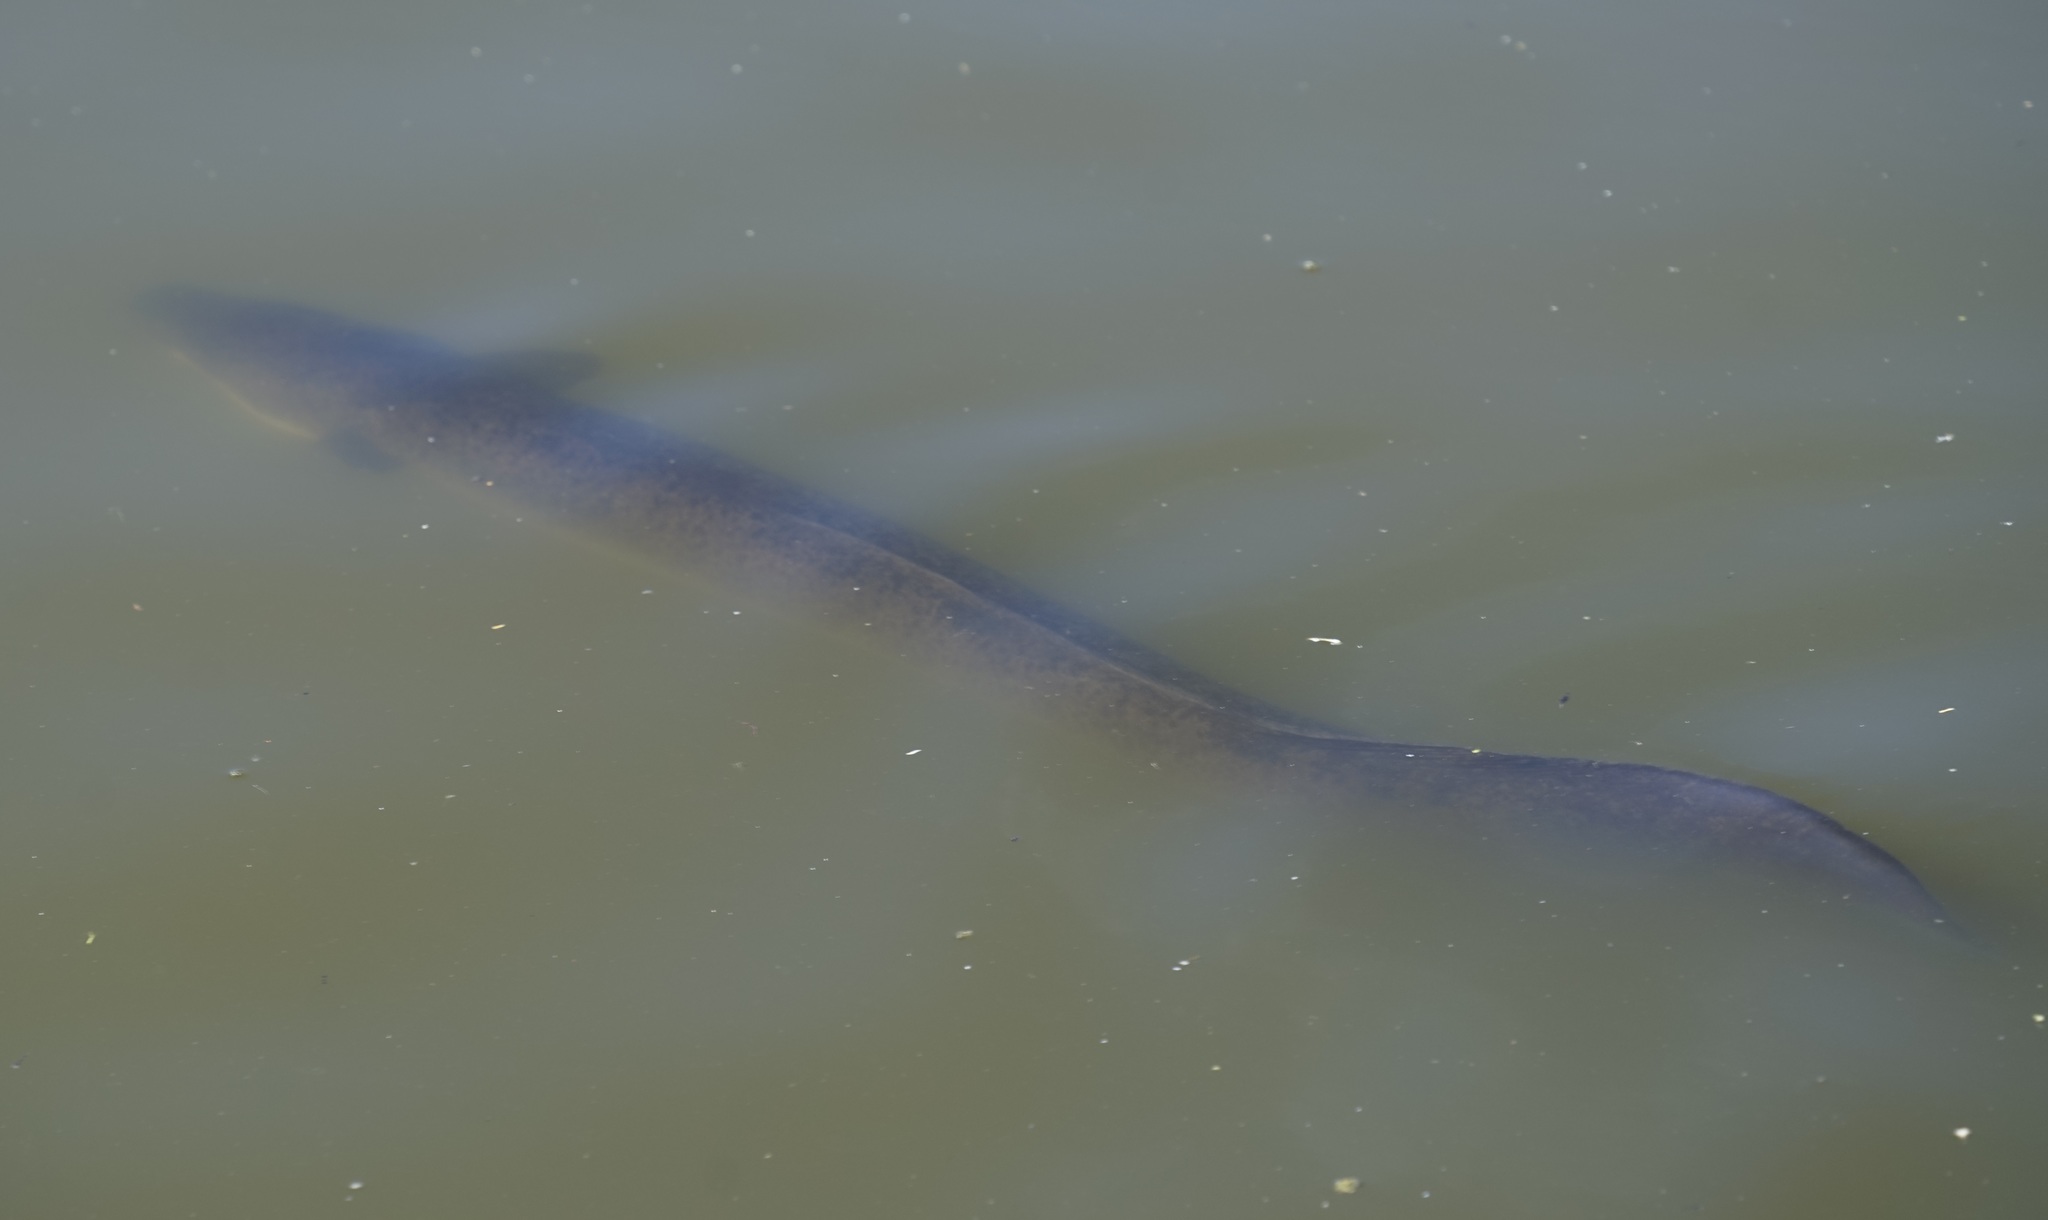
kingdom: Animalia
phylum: Chordata
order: Anguilliformes
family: Anguillidae
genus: Anguilla
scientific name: Anguilla reinhardtii
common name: Longfin eel
